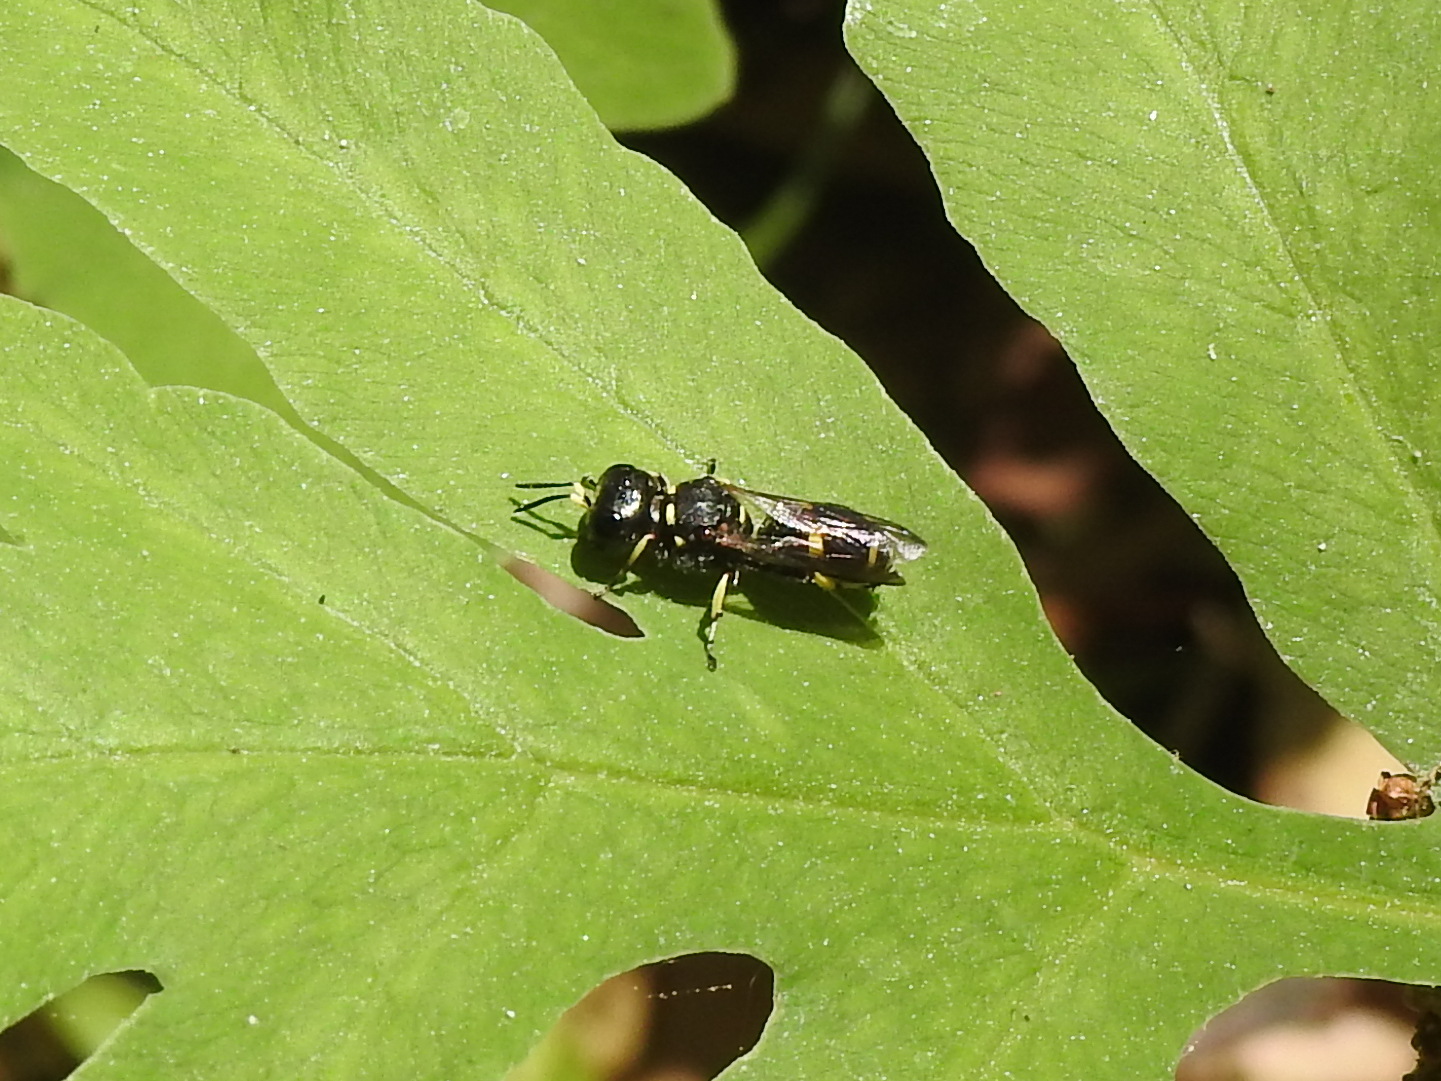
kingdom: Animalia
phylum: Arthropoda
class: Insecta
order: Hymenoptera
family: Crabronidae
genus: Ectemnius
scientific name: Ectemnius continuus
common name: Common ectemnius
